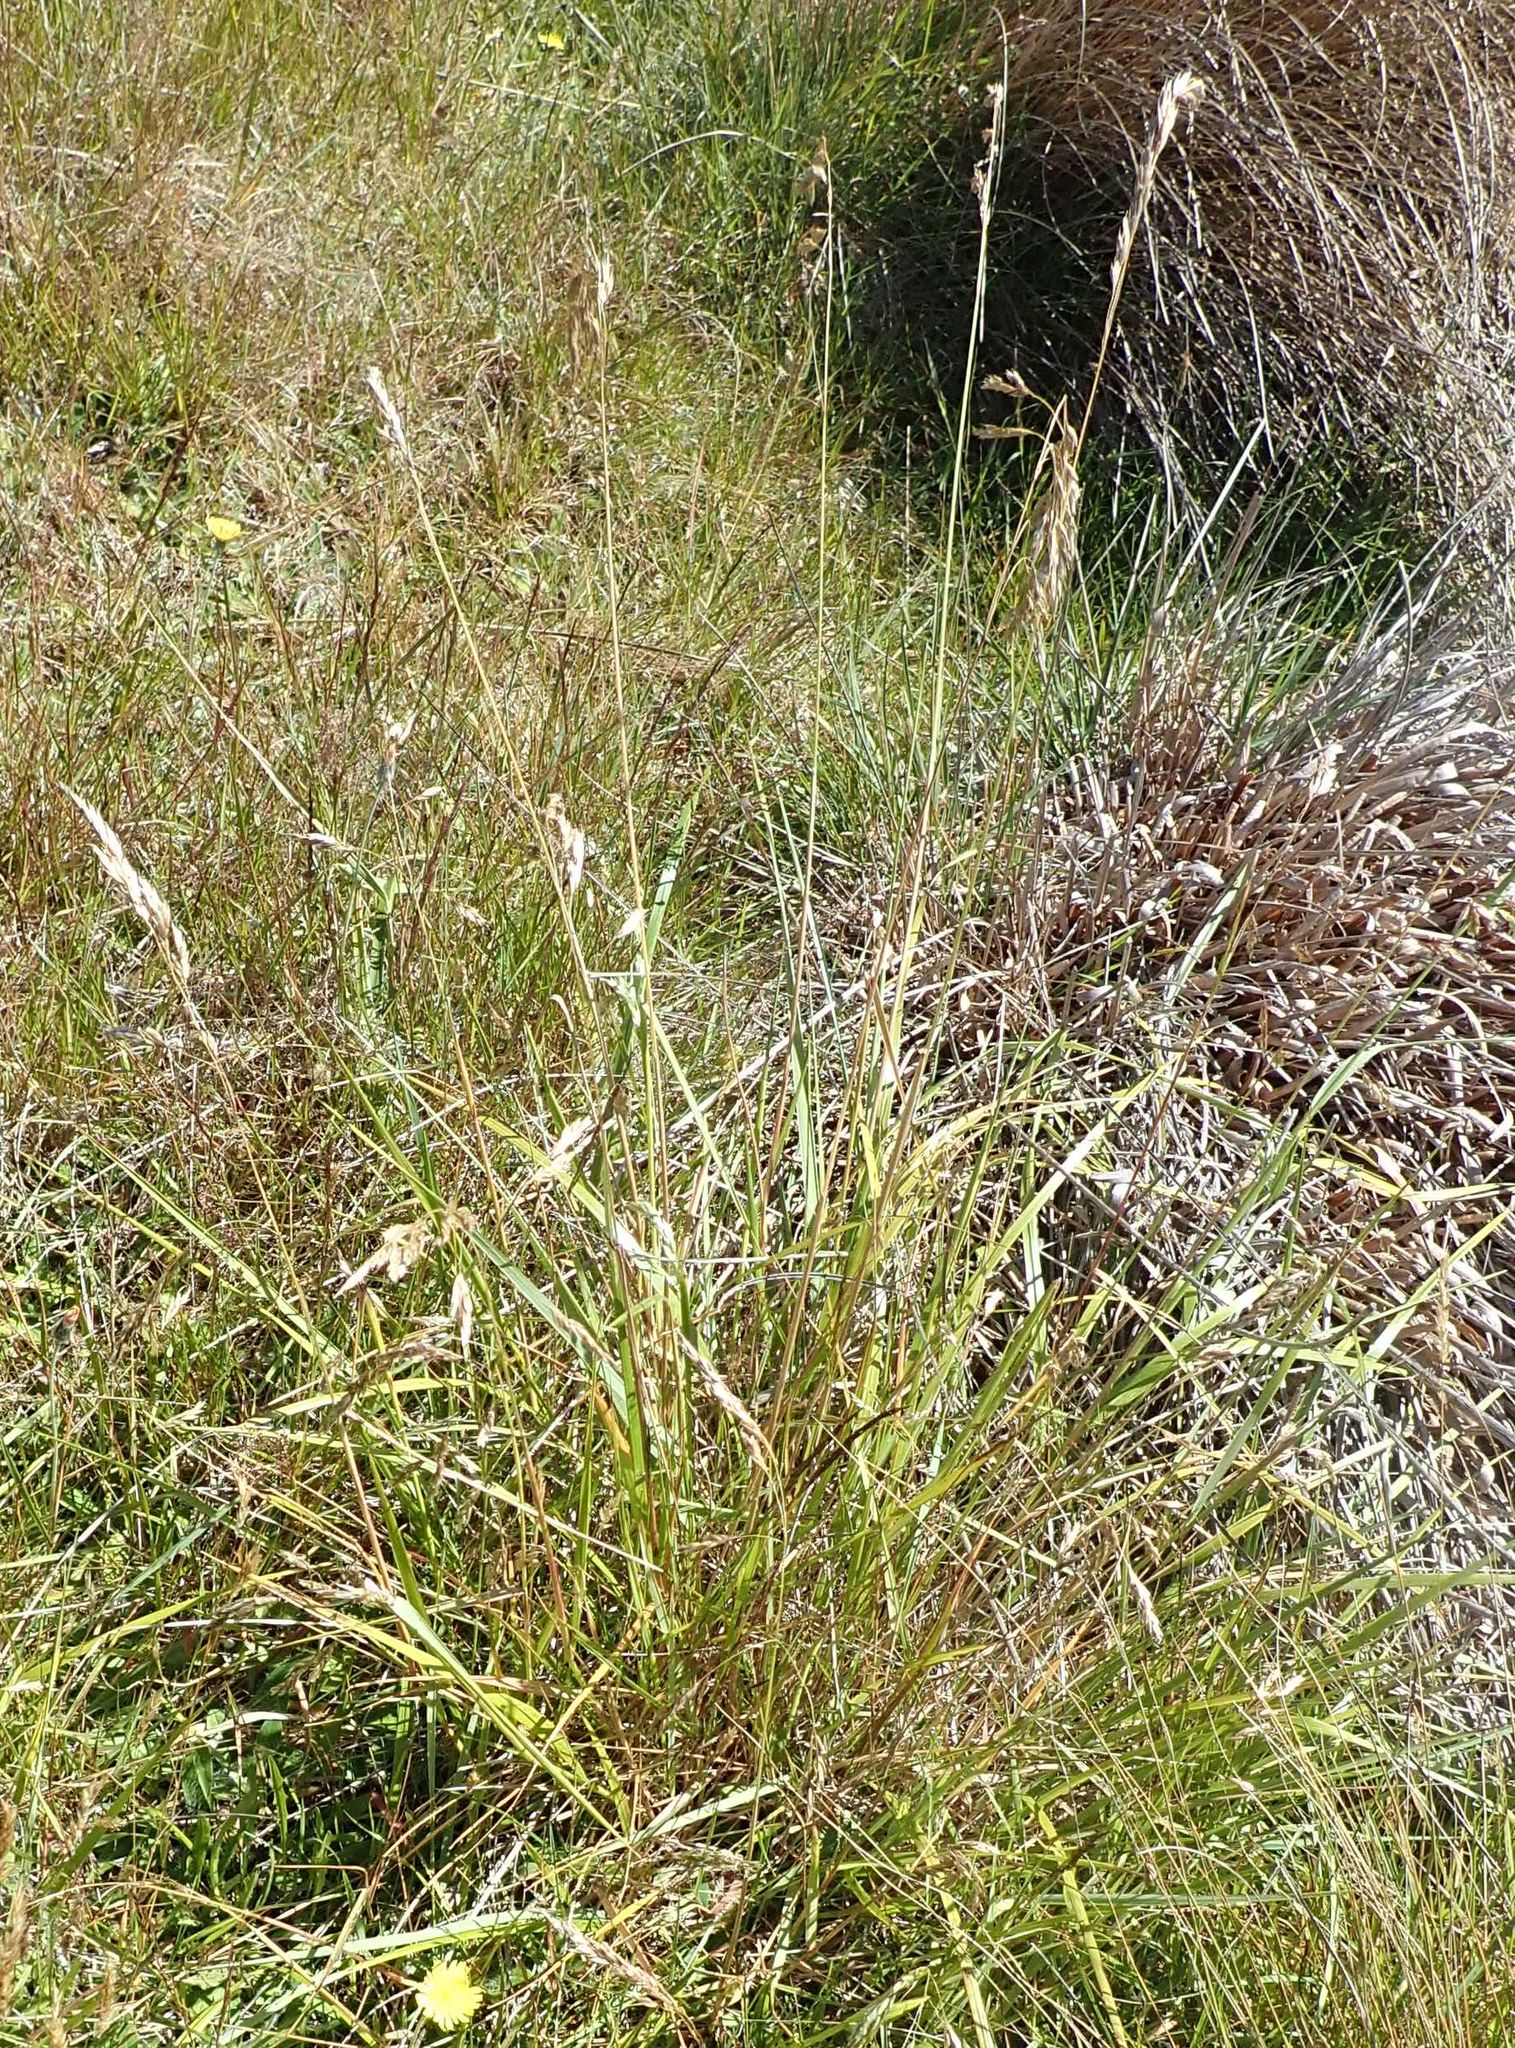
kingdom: Plantae
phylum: Tracheophyta
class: Liliopsida
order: Poales
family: Poaceae
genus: Anthoxanthum
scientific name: Anthoxanthum redolens
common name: Sweet holy grass
